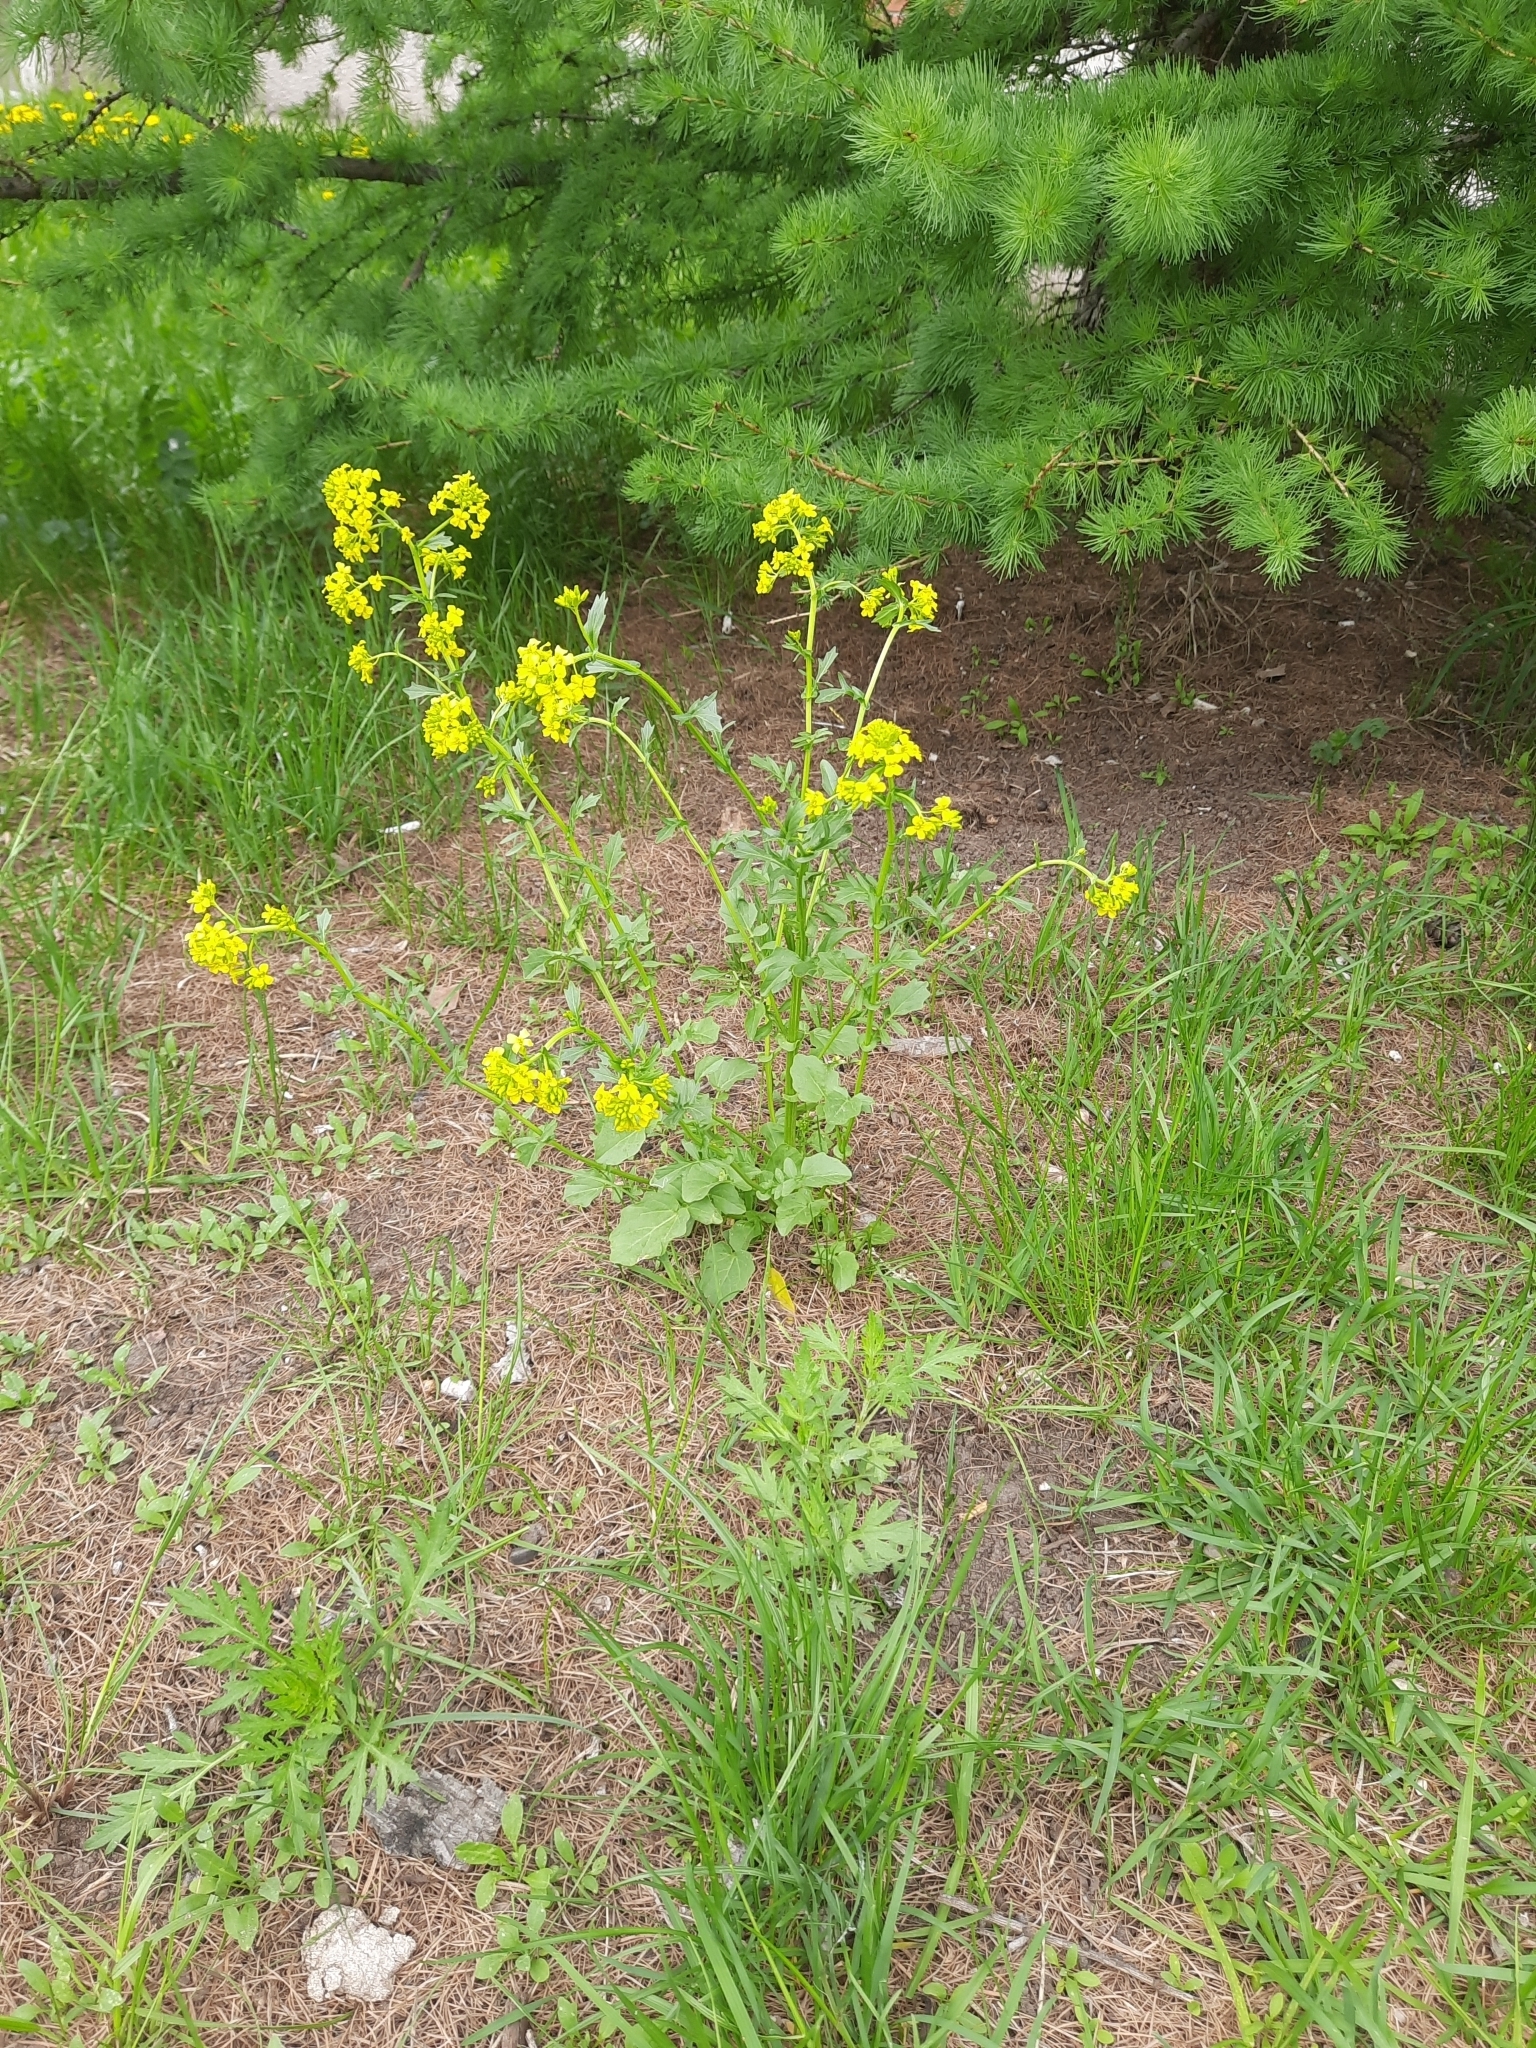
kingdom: Plantae
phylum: Tracheophyta
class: Magnoliopsida
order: Brassicales
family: Brassicaceae
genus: Barbarea
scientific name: Barbarea vulgaris
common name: Cressy-greens
